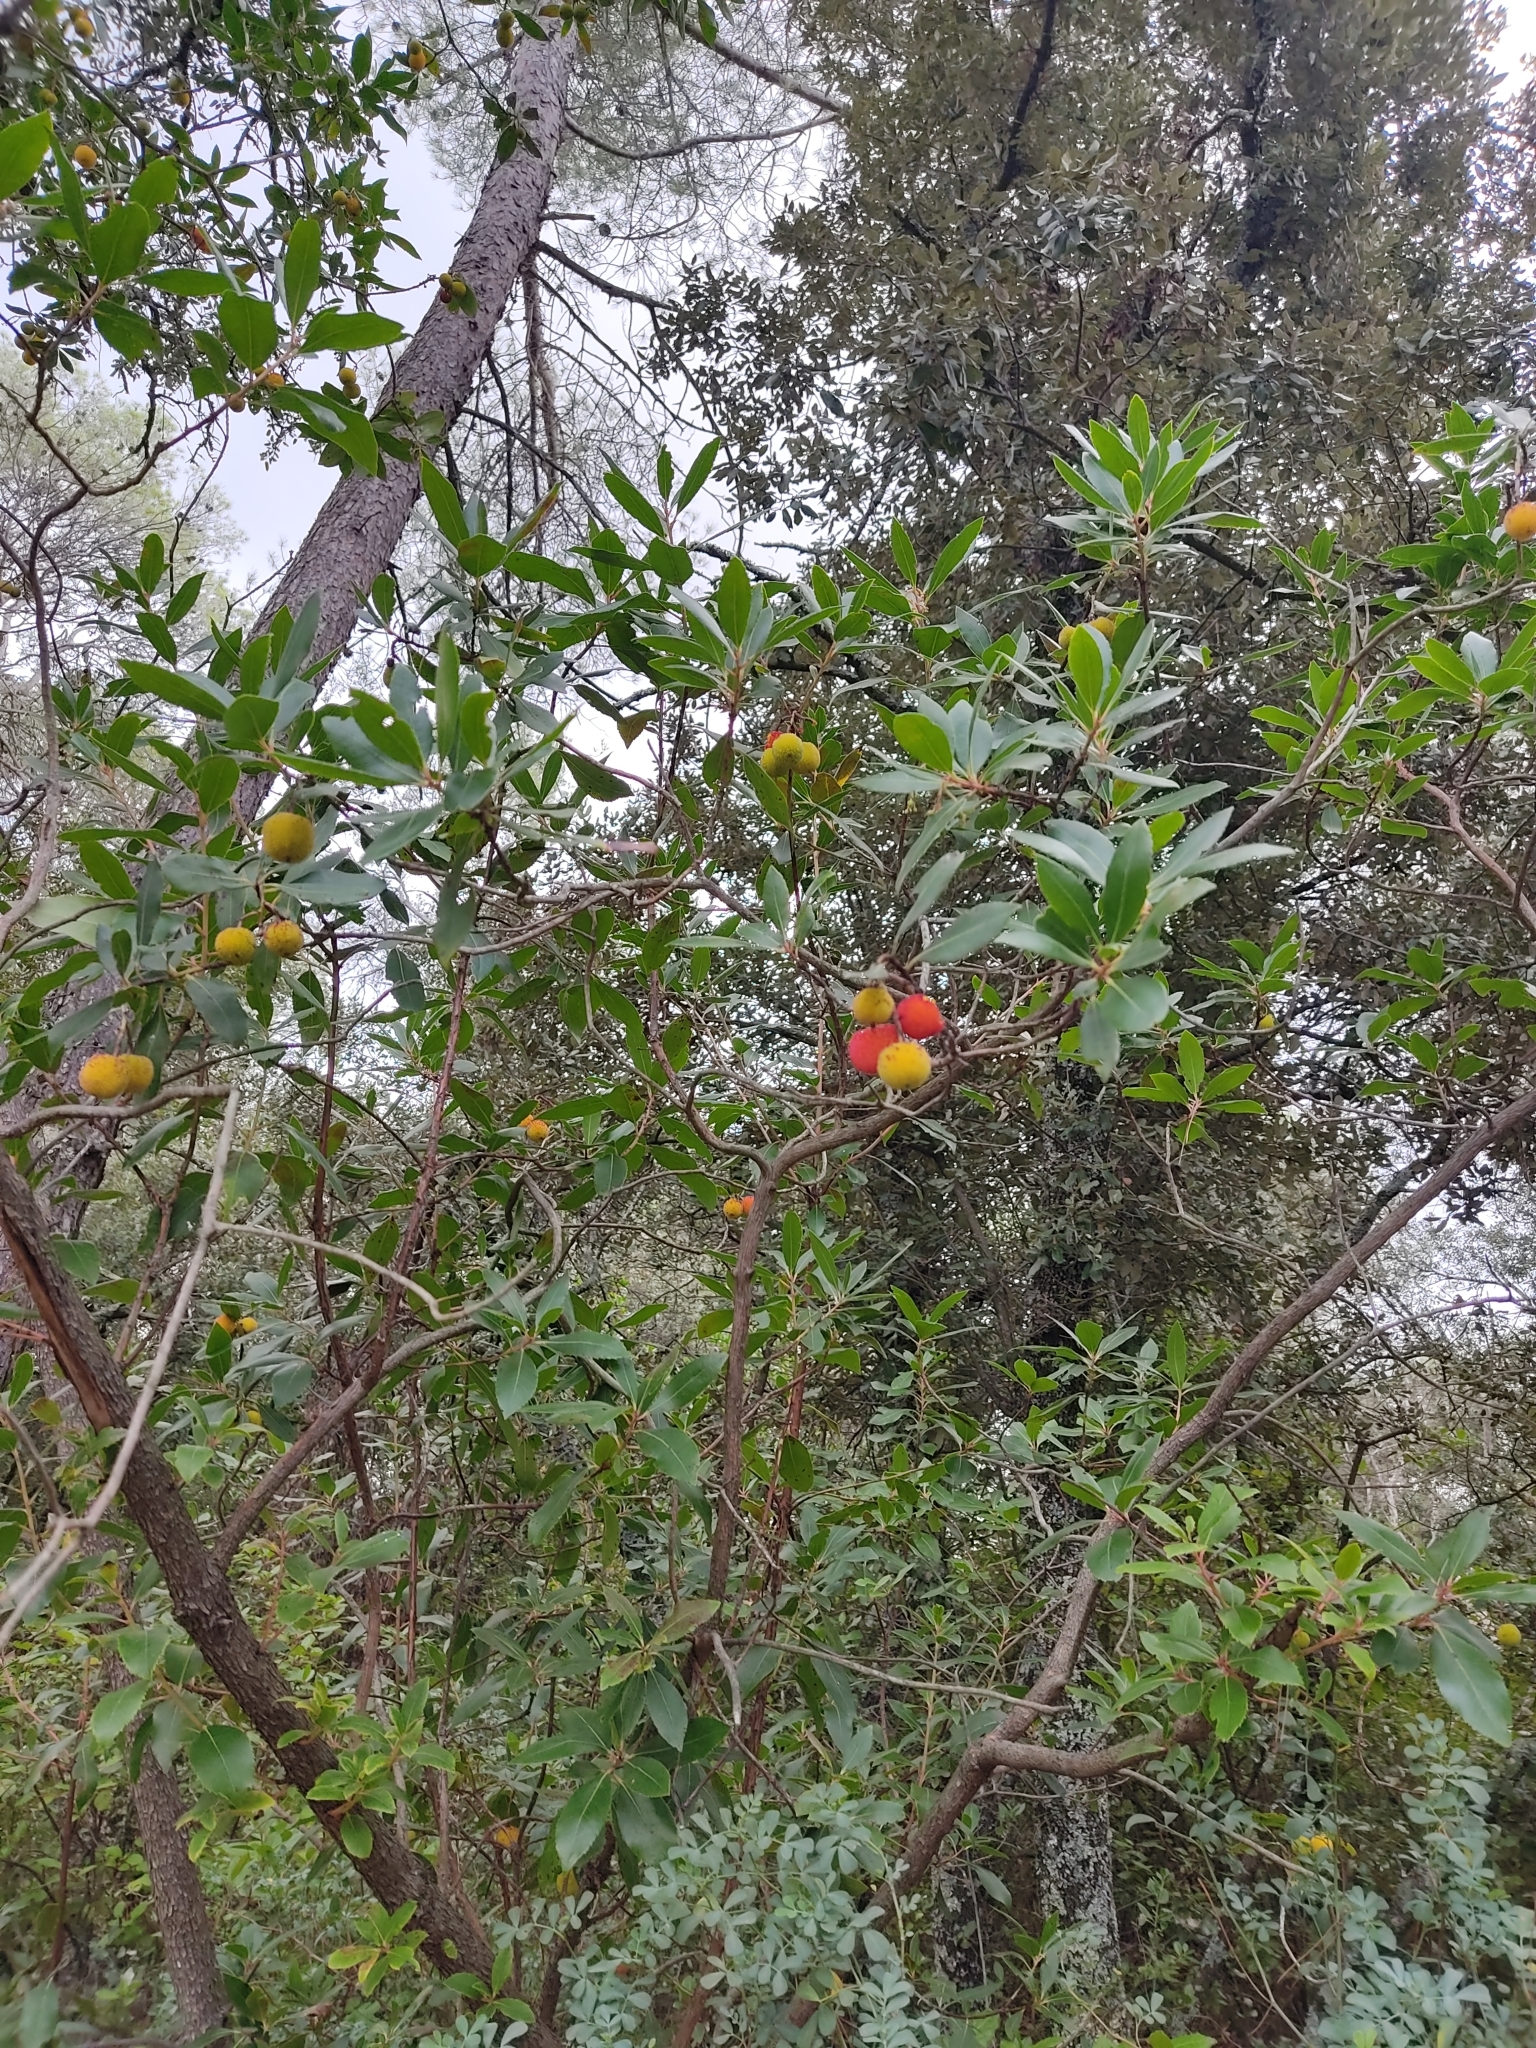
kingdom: Plantae
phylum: Tracheophyta
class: Magnoliopsida
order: Ericales
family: Ericaceae
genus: Arbutus
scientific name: Arbutus unedo
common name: Strawberry-tree
